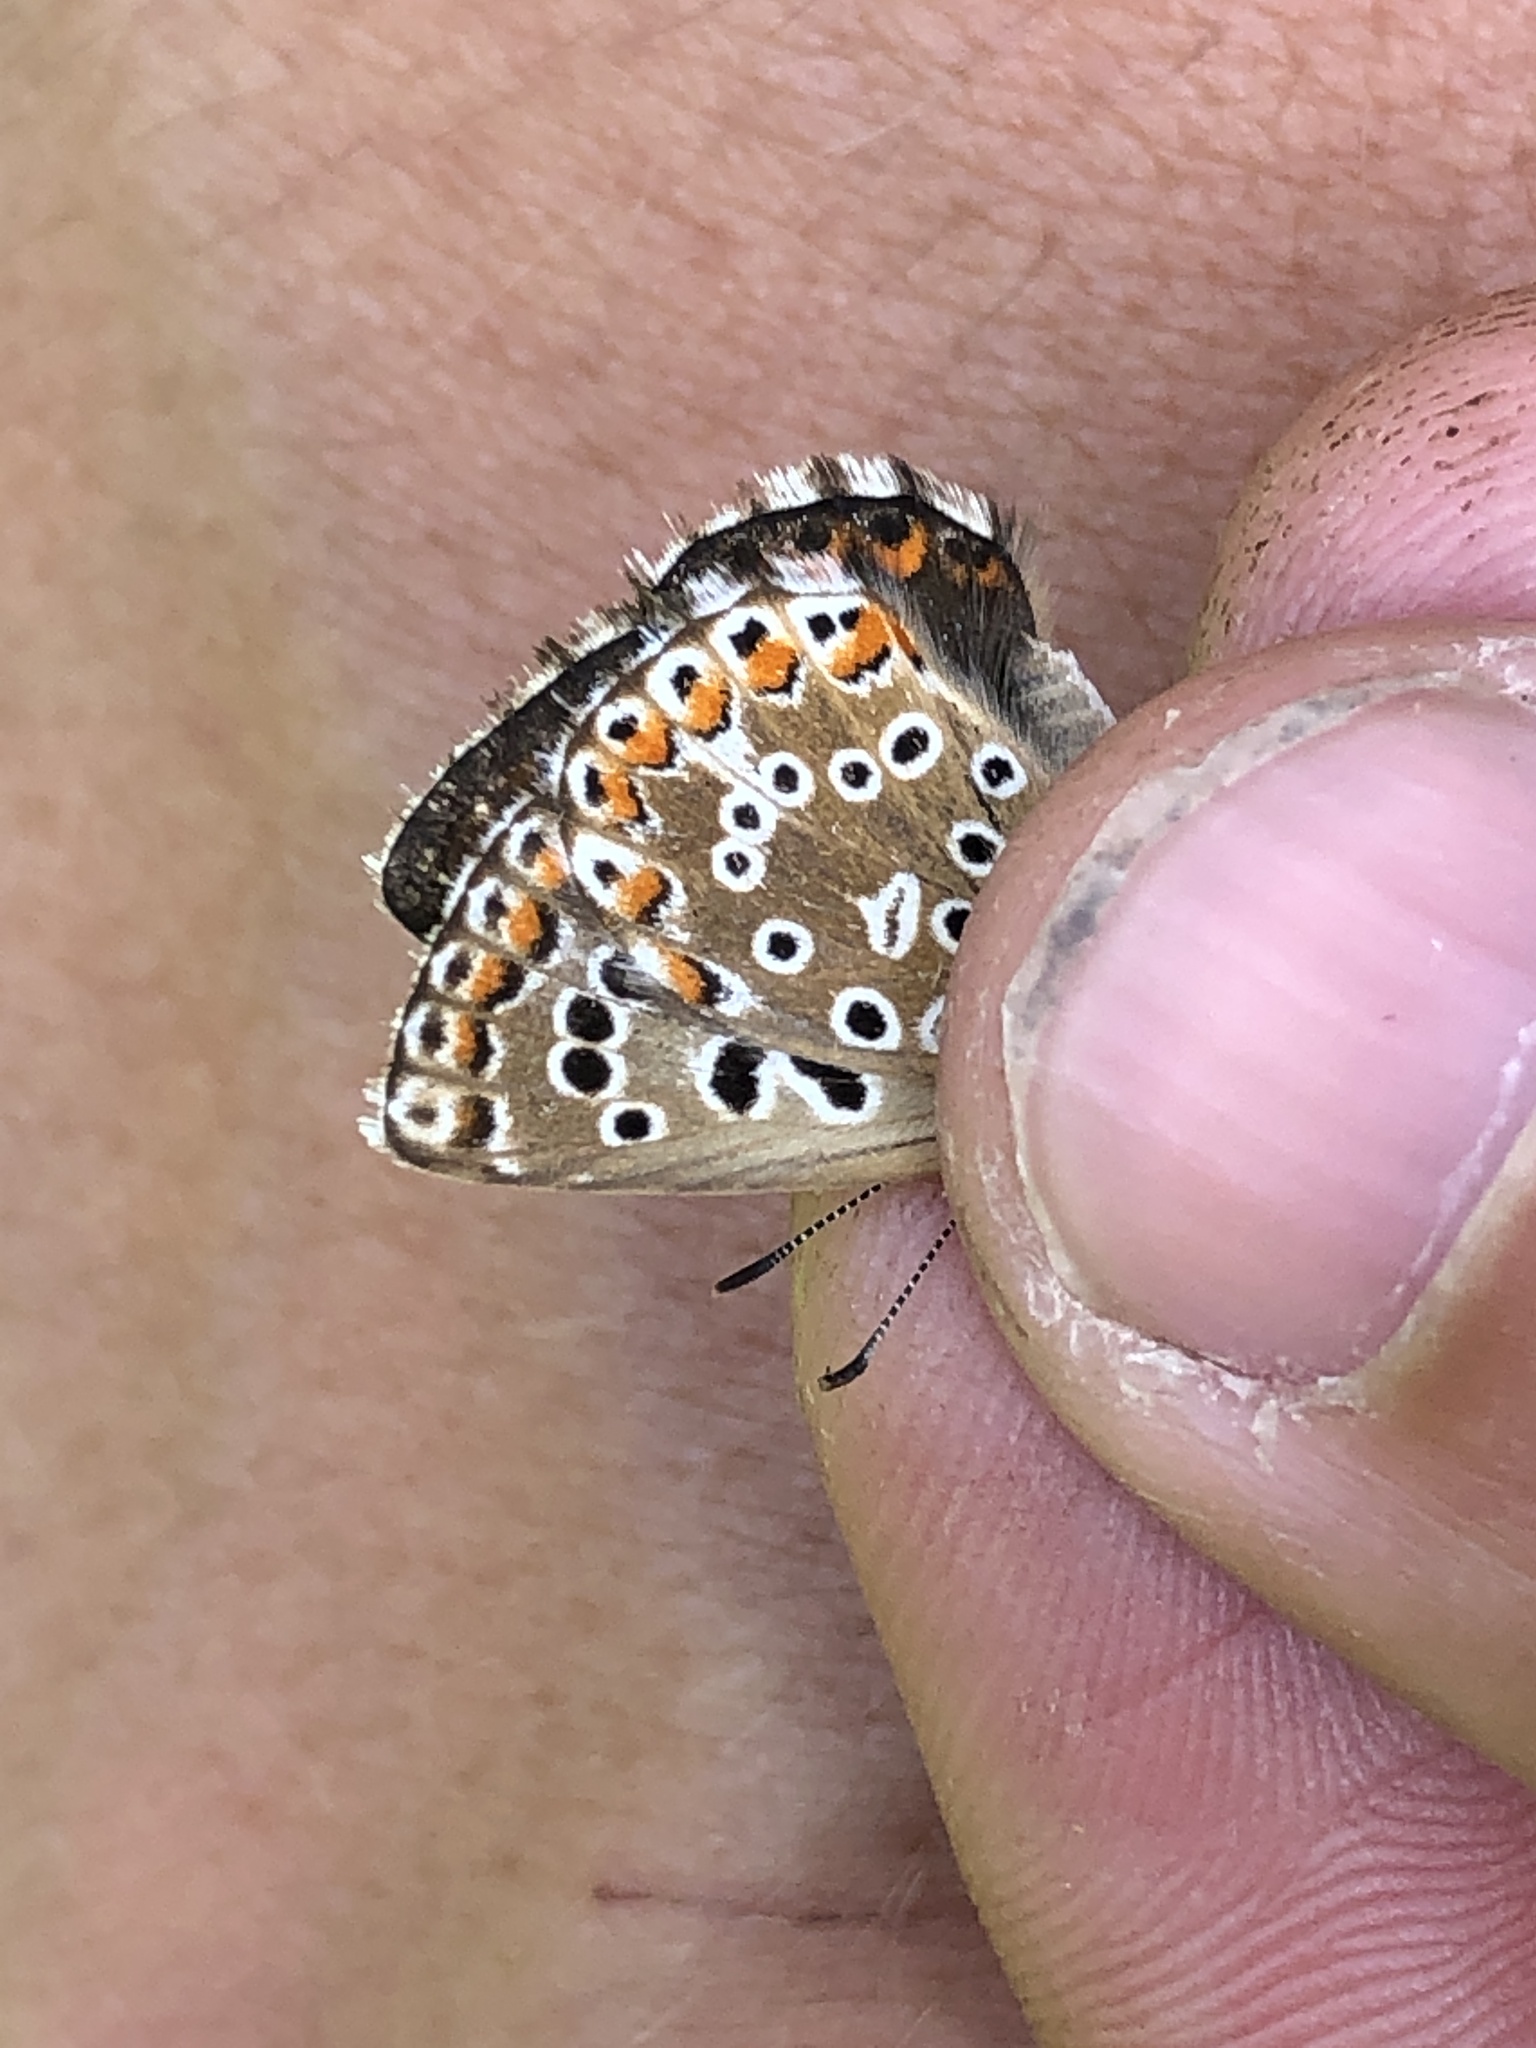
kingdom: Animalia
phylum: Arthropoda
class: Insecta
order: Lepidoptera
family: Lycaenidae
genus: Lysandra
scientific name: Lysandra bellargus
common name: Adonis blue
